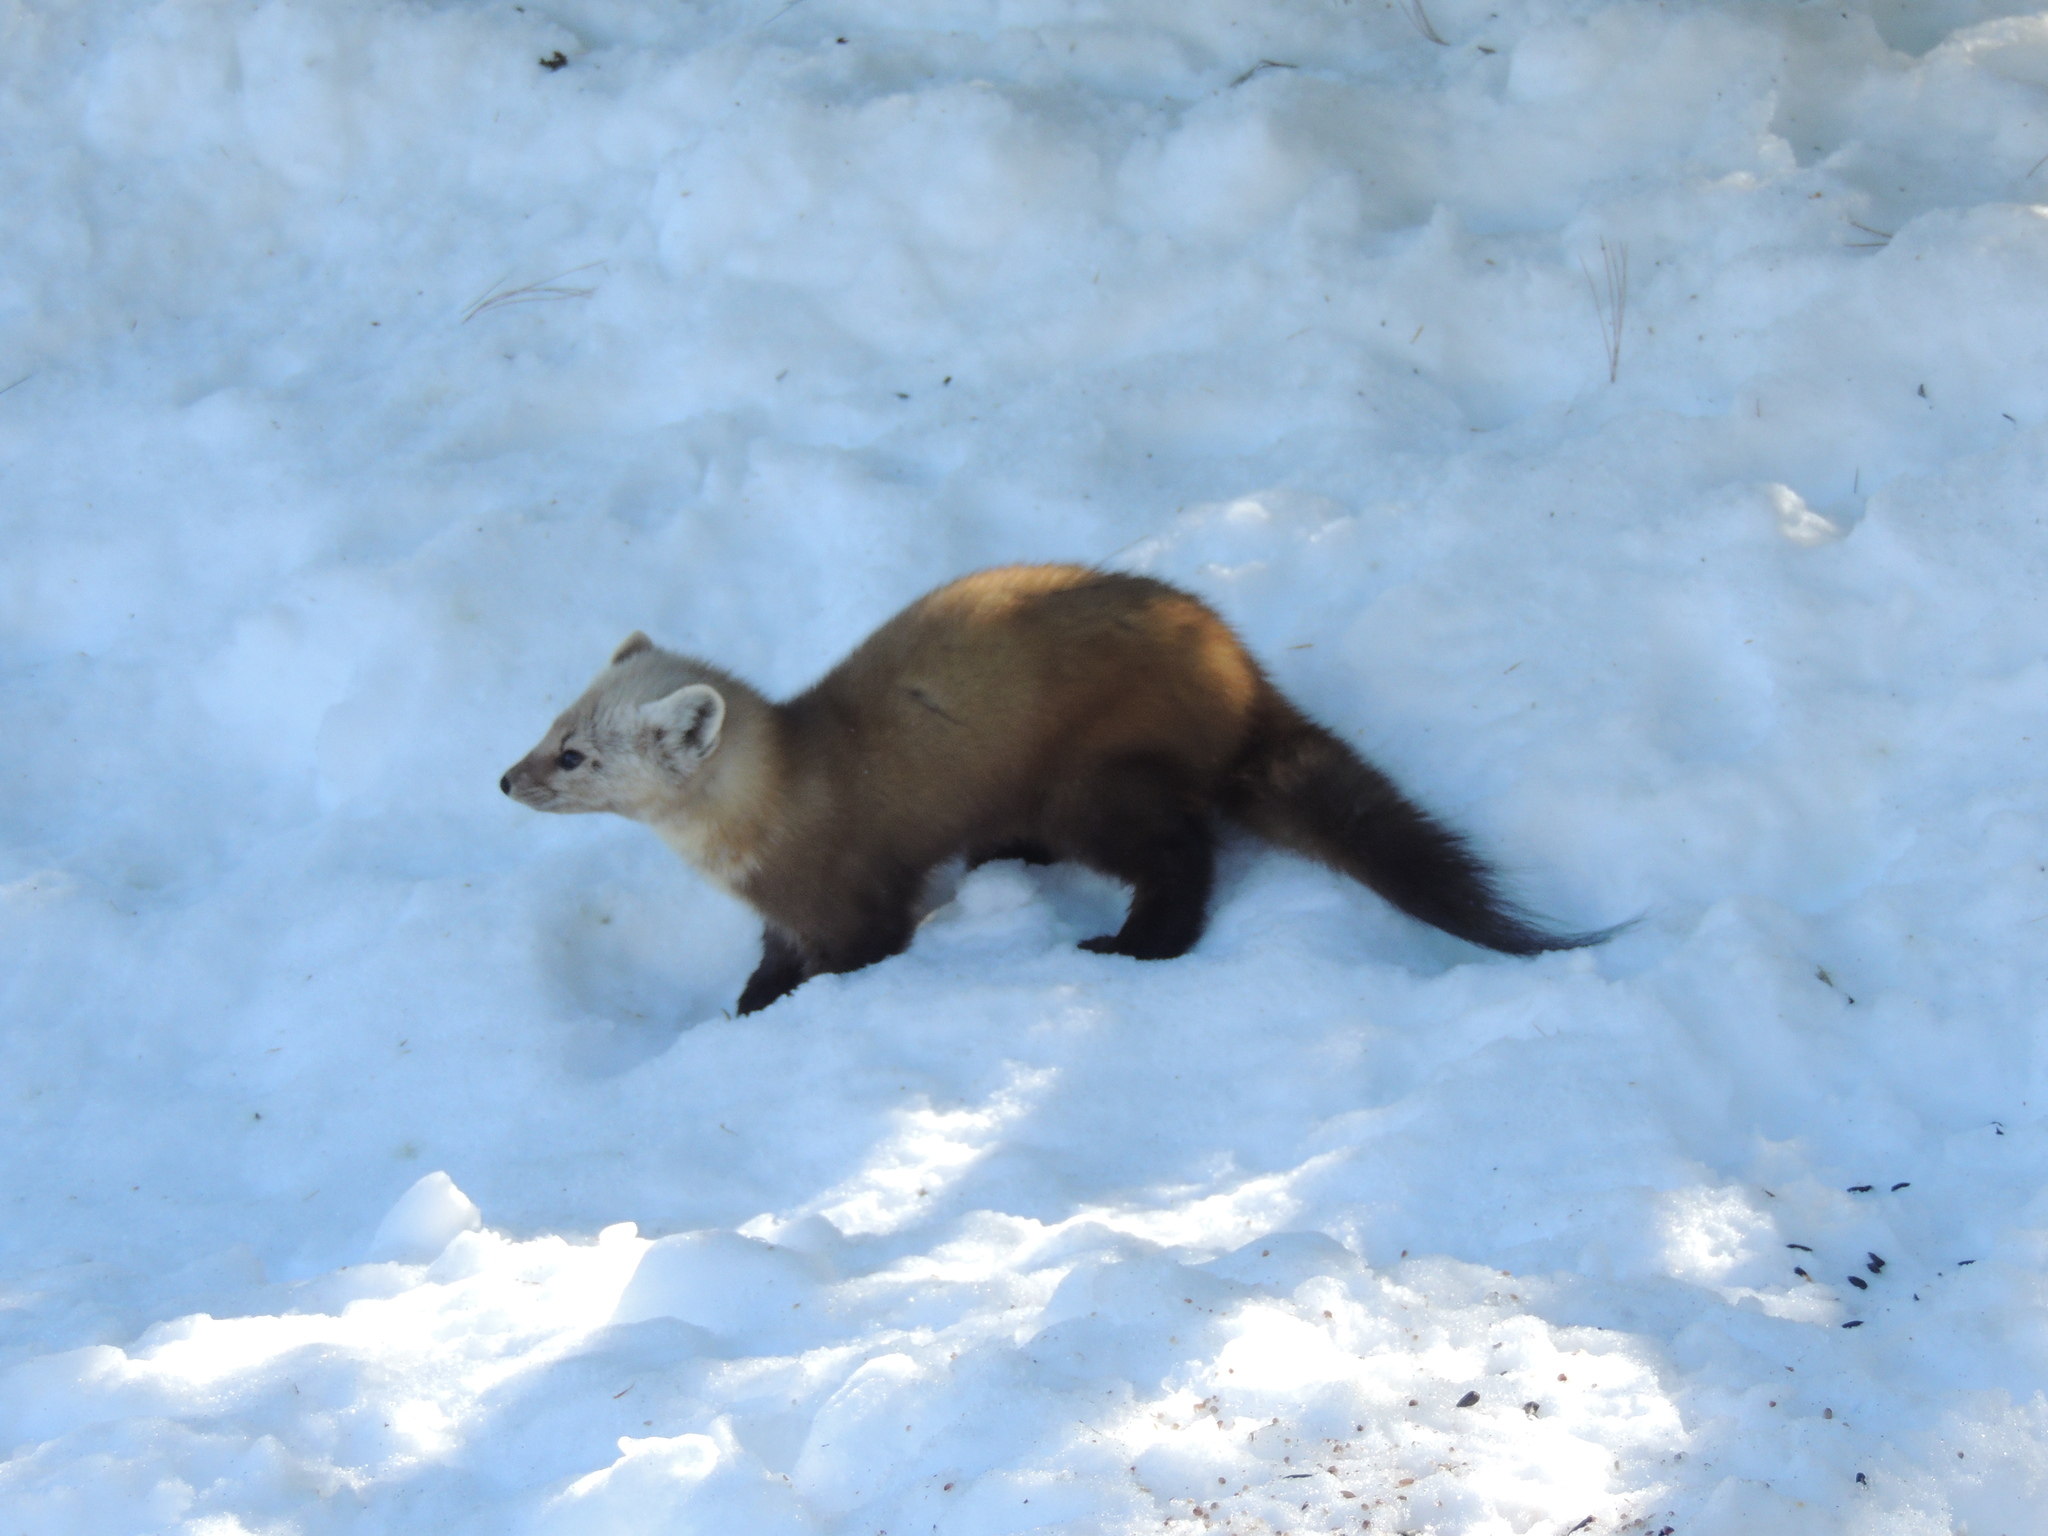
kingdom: Animalia
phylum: Chordata
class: Mammalia
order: Carnivora
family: Mustelidae
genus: Martes
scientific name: Martes americana
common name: American marten
